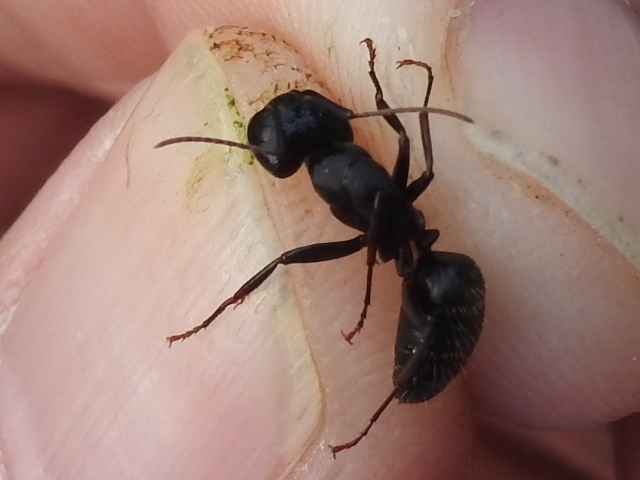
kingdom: Animalia
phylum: Arthropoda
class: Insecta
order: Hymenoptera
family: Formicidae
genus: Camponotus
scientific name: Camponotus pennsylvanicus
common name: Black carpenter ant
